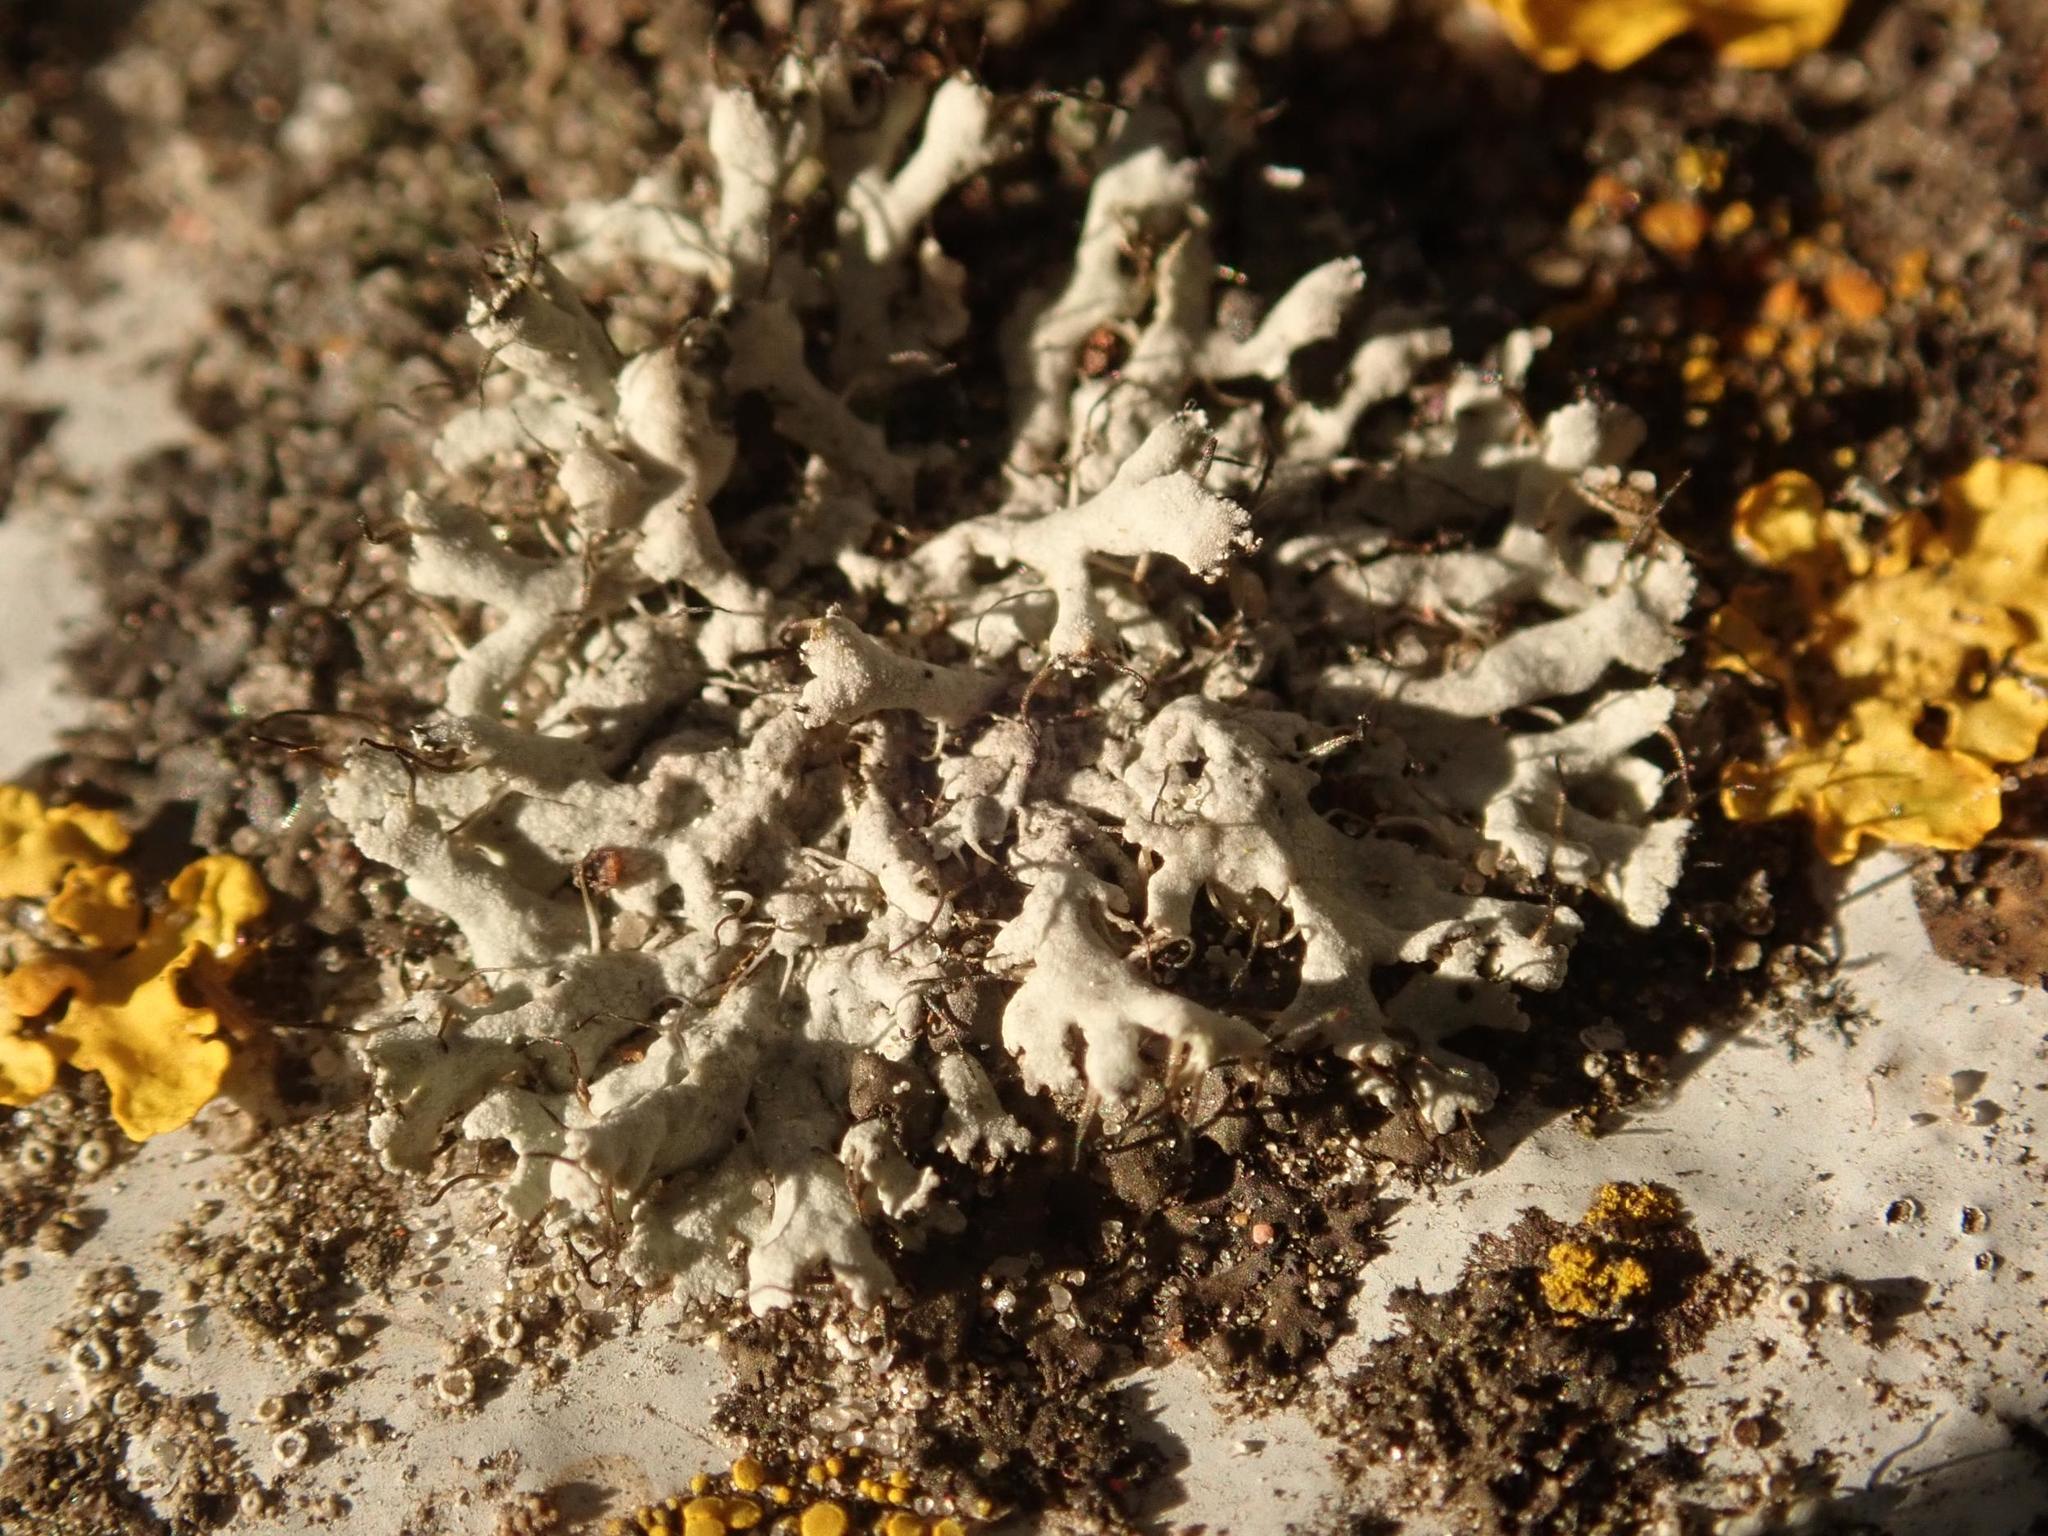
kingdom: Fungi
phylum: Ascomycota
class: Lecanoromycetes
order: Caliciales
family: Physciaceae
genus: Physcia
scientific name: Physcia adscendens
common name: Hooded rosette lichen
